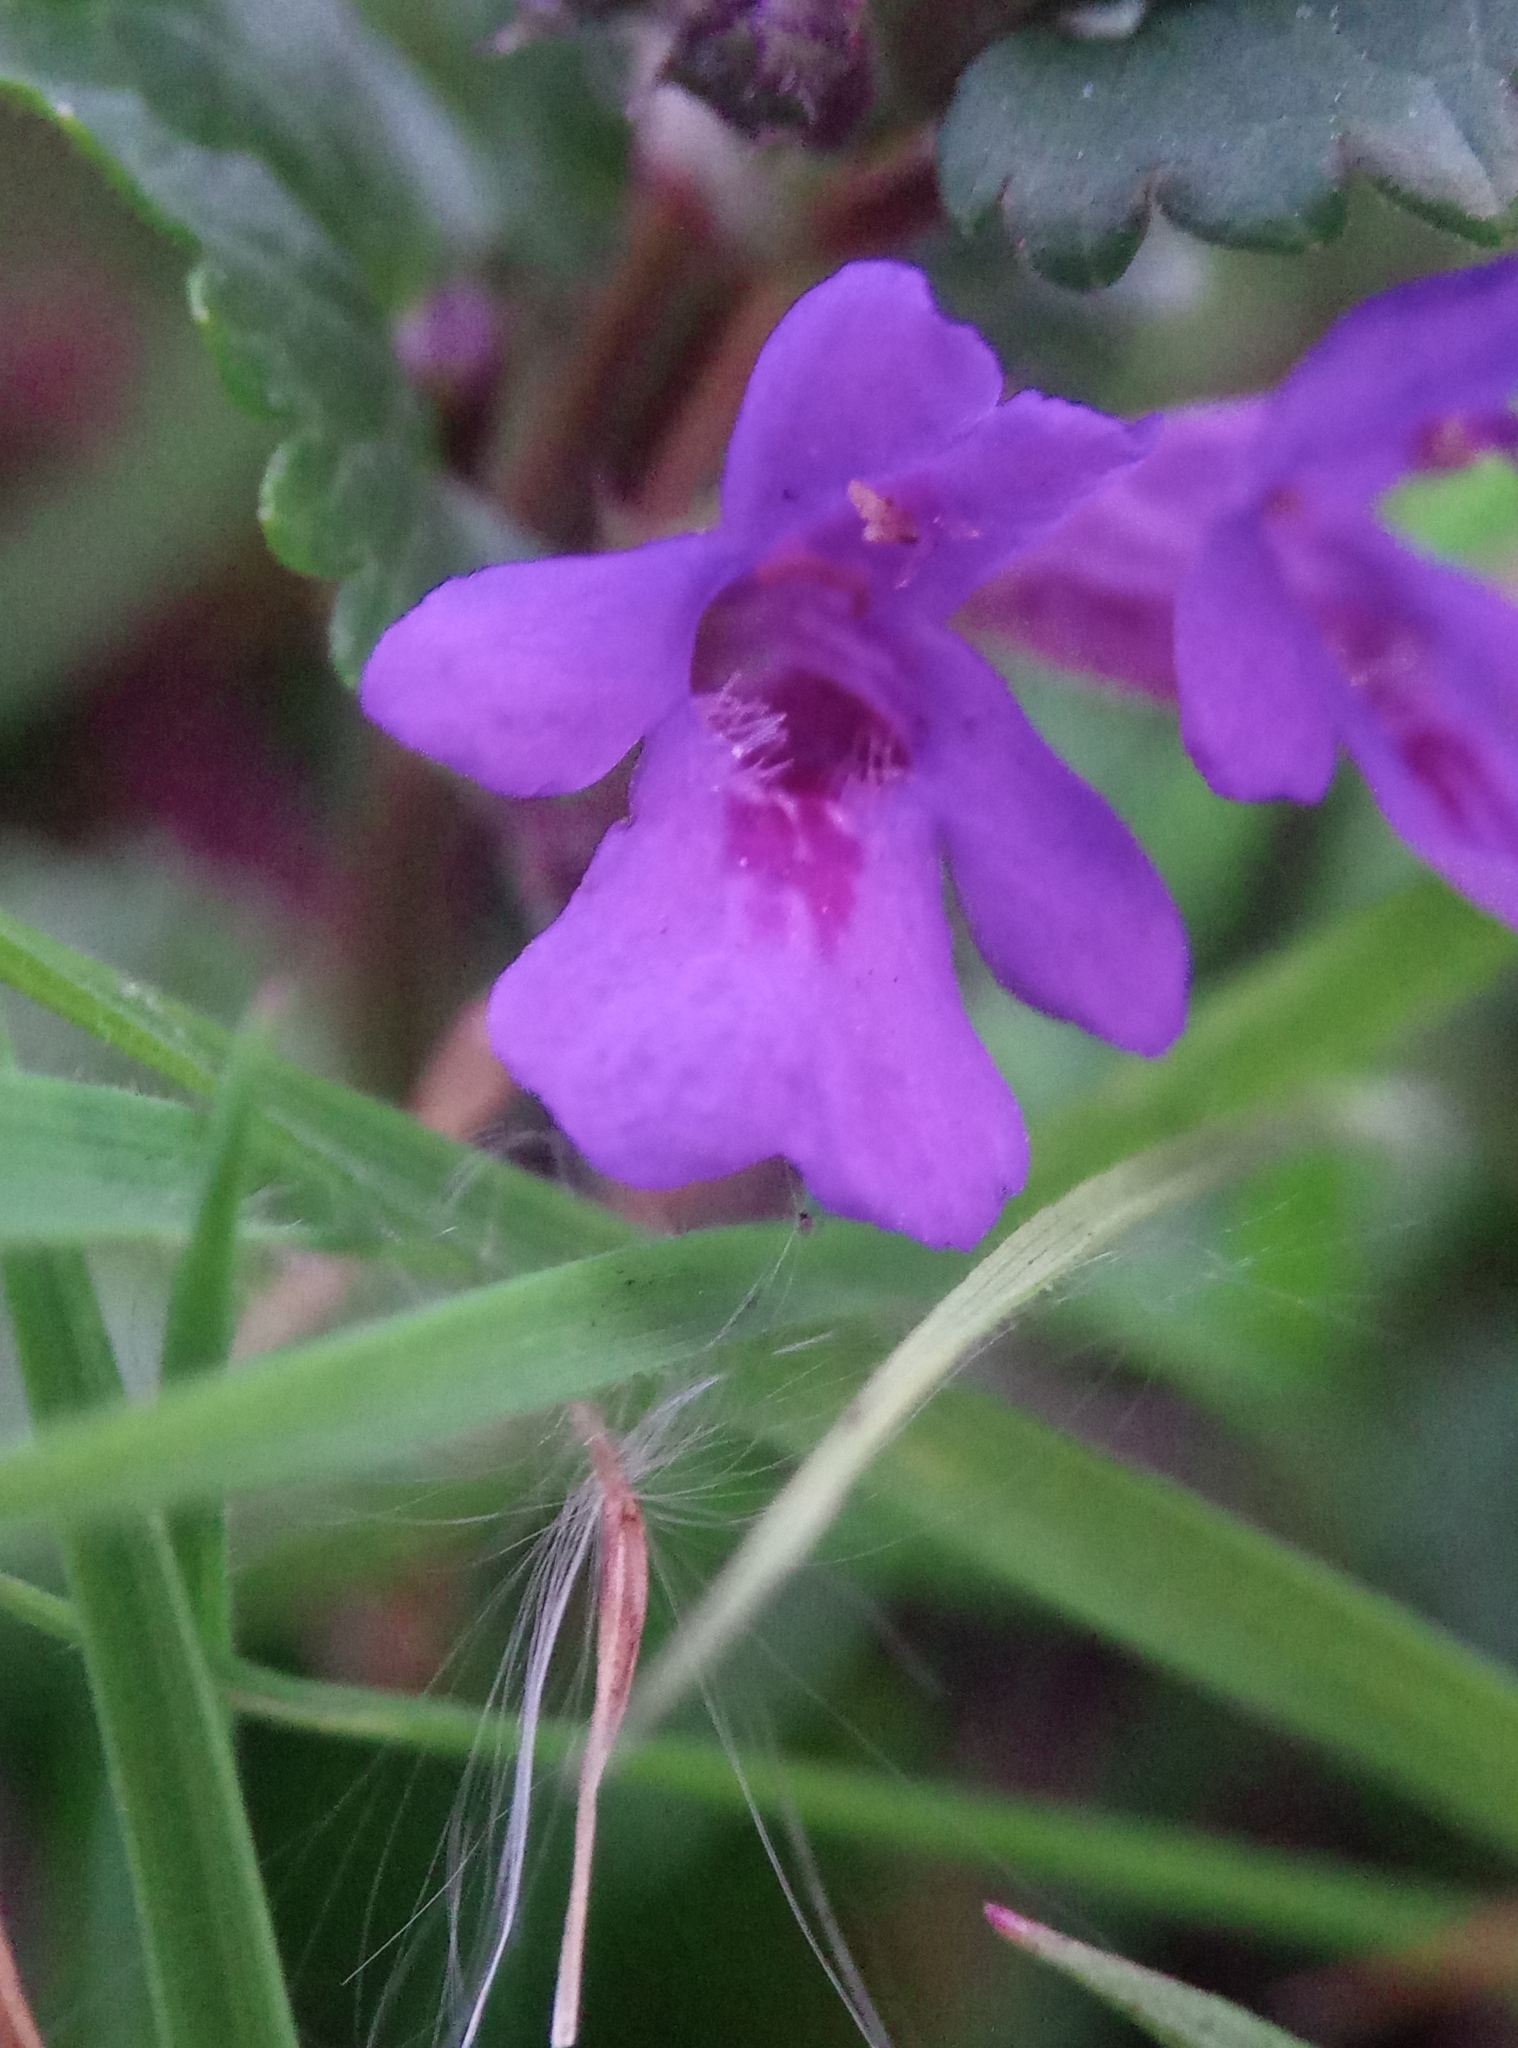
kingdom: Plantae
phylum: Tracheophyta
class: Magnoliopsida
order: Lamiales
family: Lamiaceae
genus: Glechoma
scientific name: Glechoma hederacea
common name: Ground ivy
